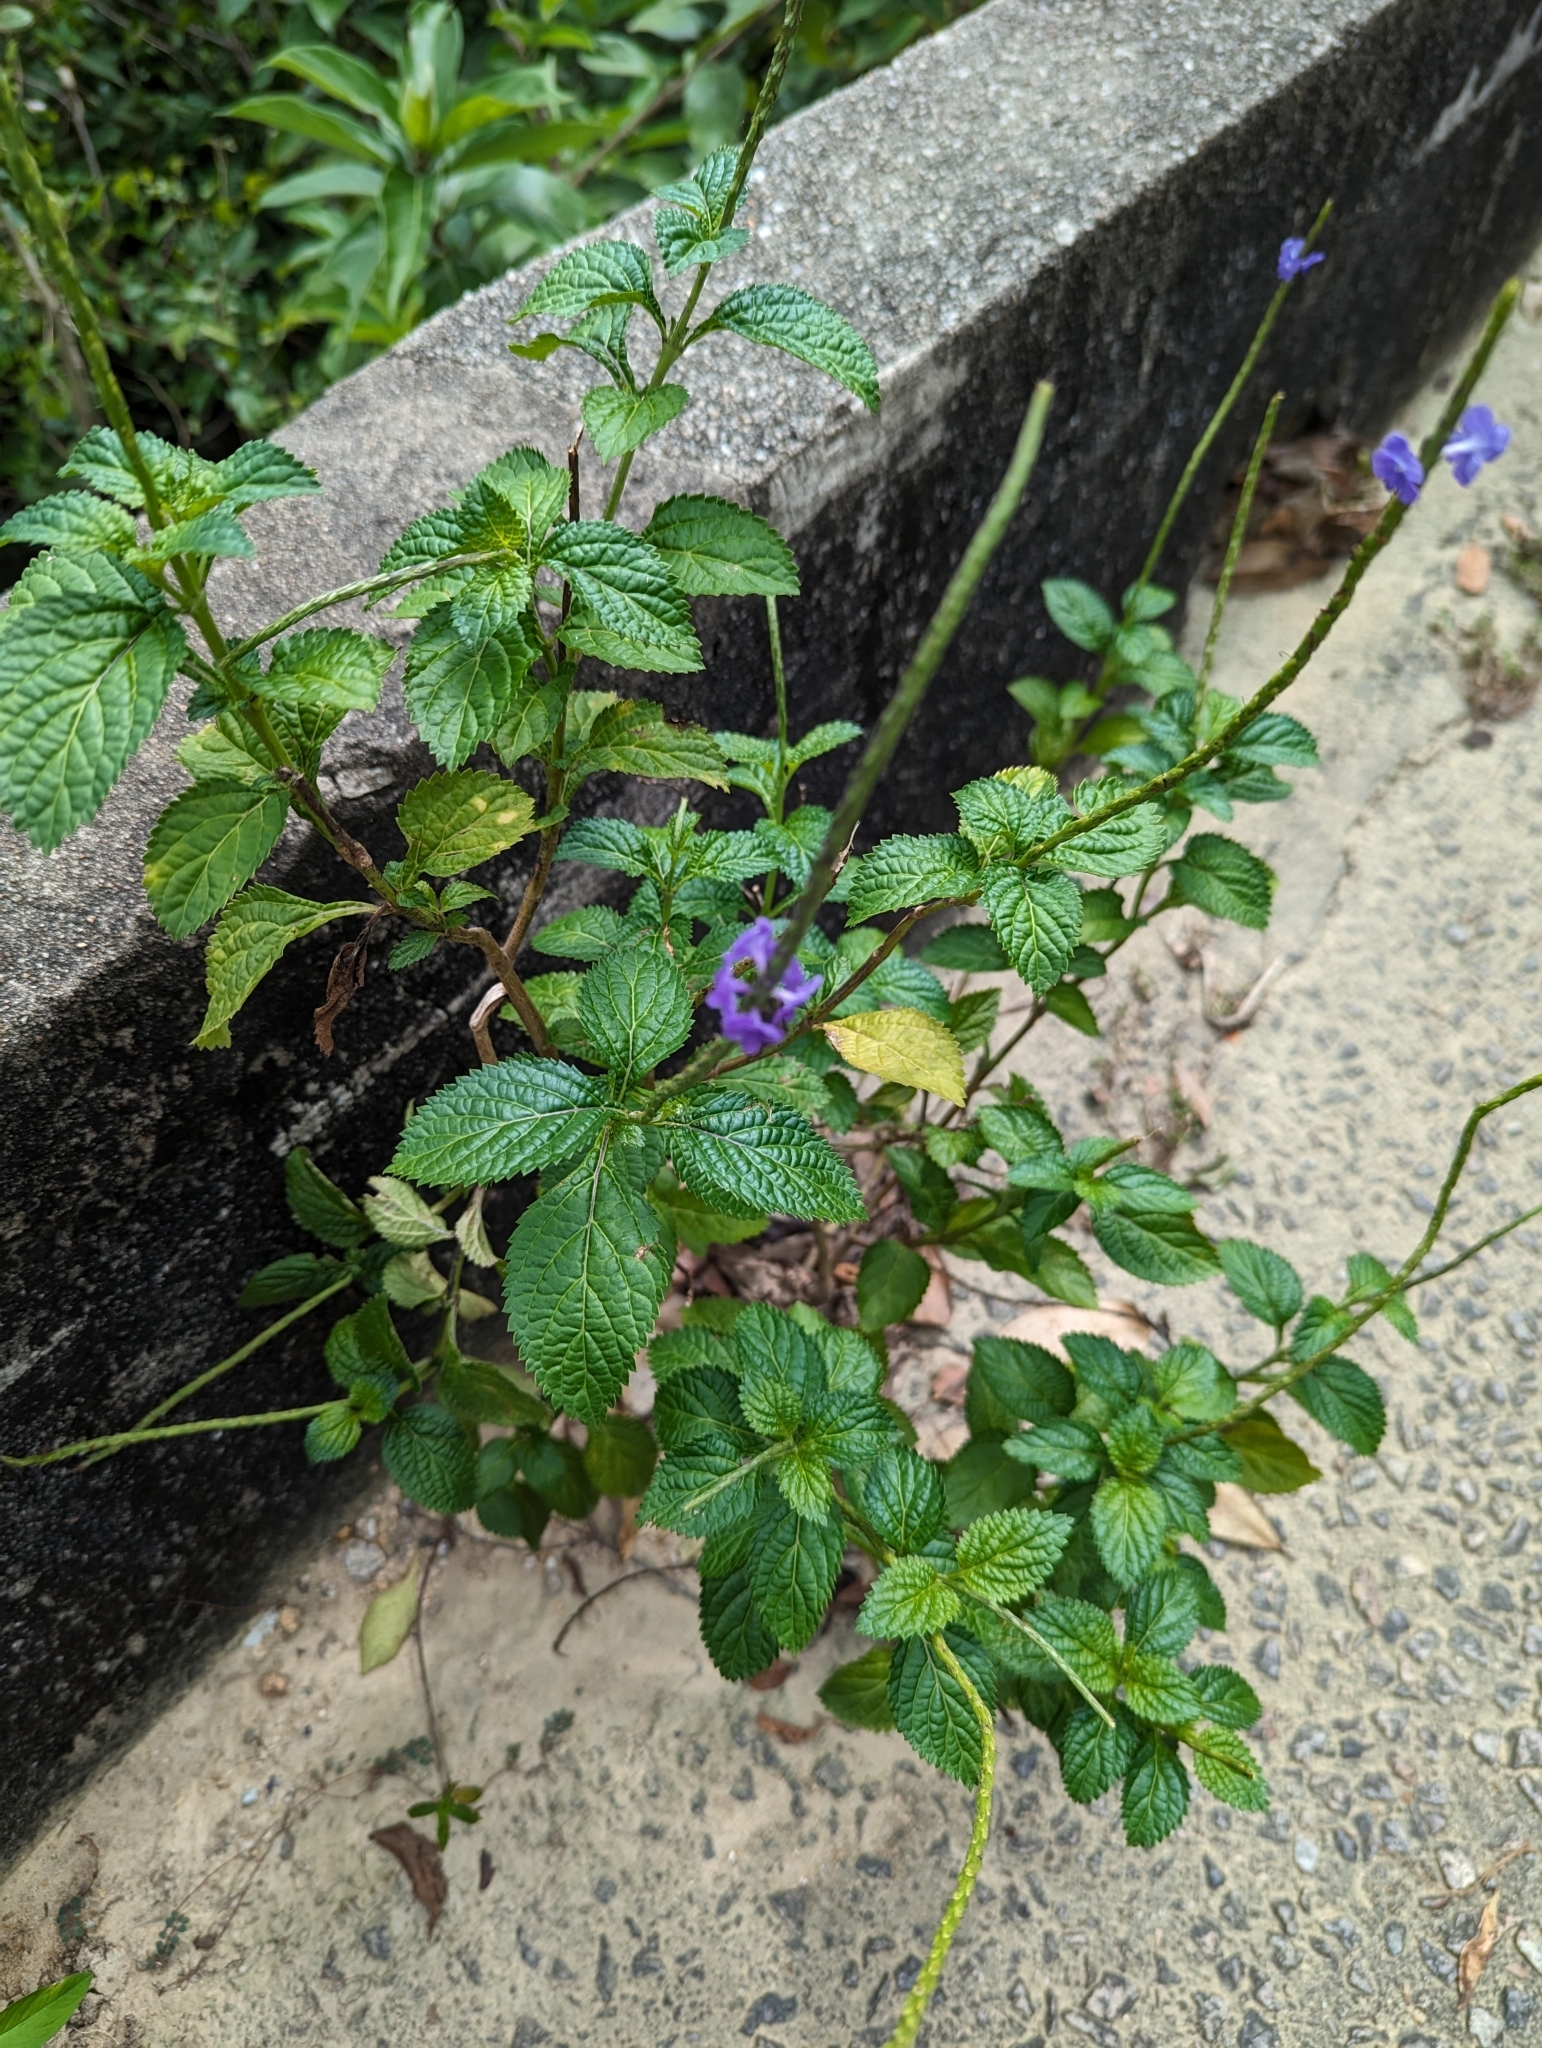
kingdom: Plantae
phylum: Tracheophyta
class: Magnoliopsida
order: Lamiales
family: Verbenaceae
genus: Stachytarpheta
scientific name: Stachytarpheta cayennensis
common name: Cayenne porterweed
